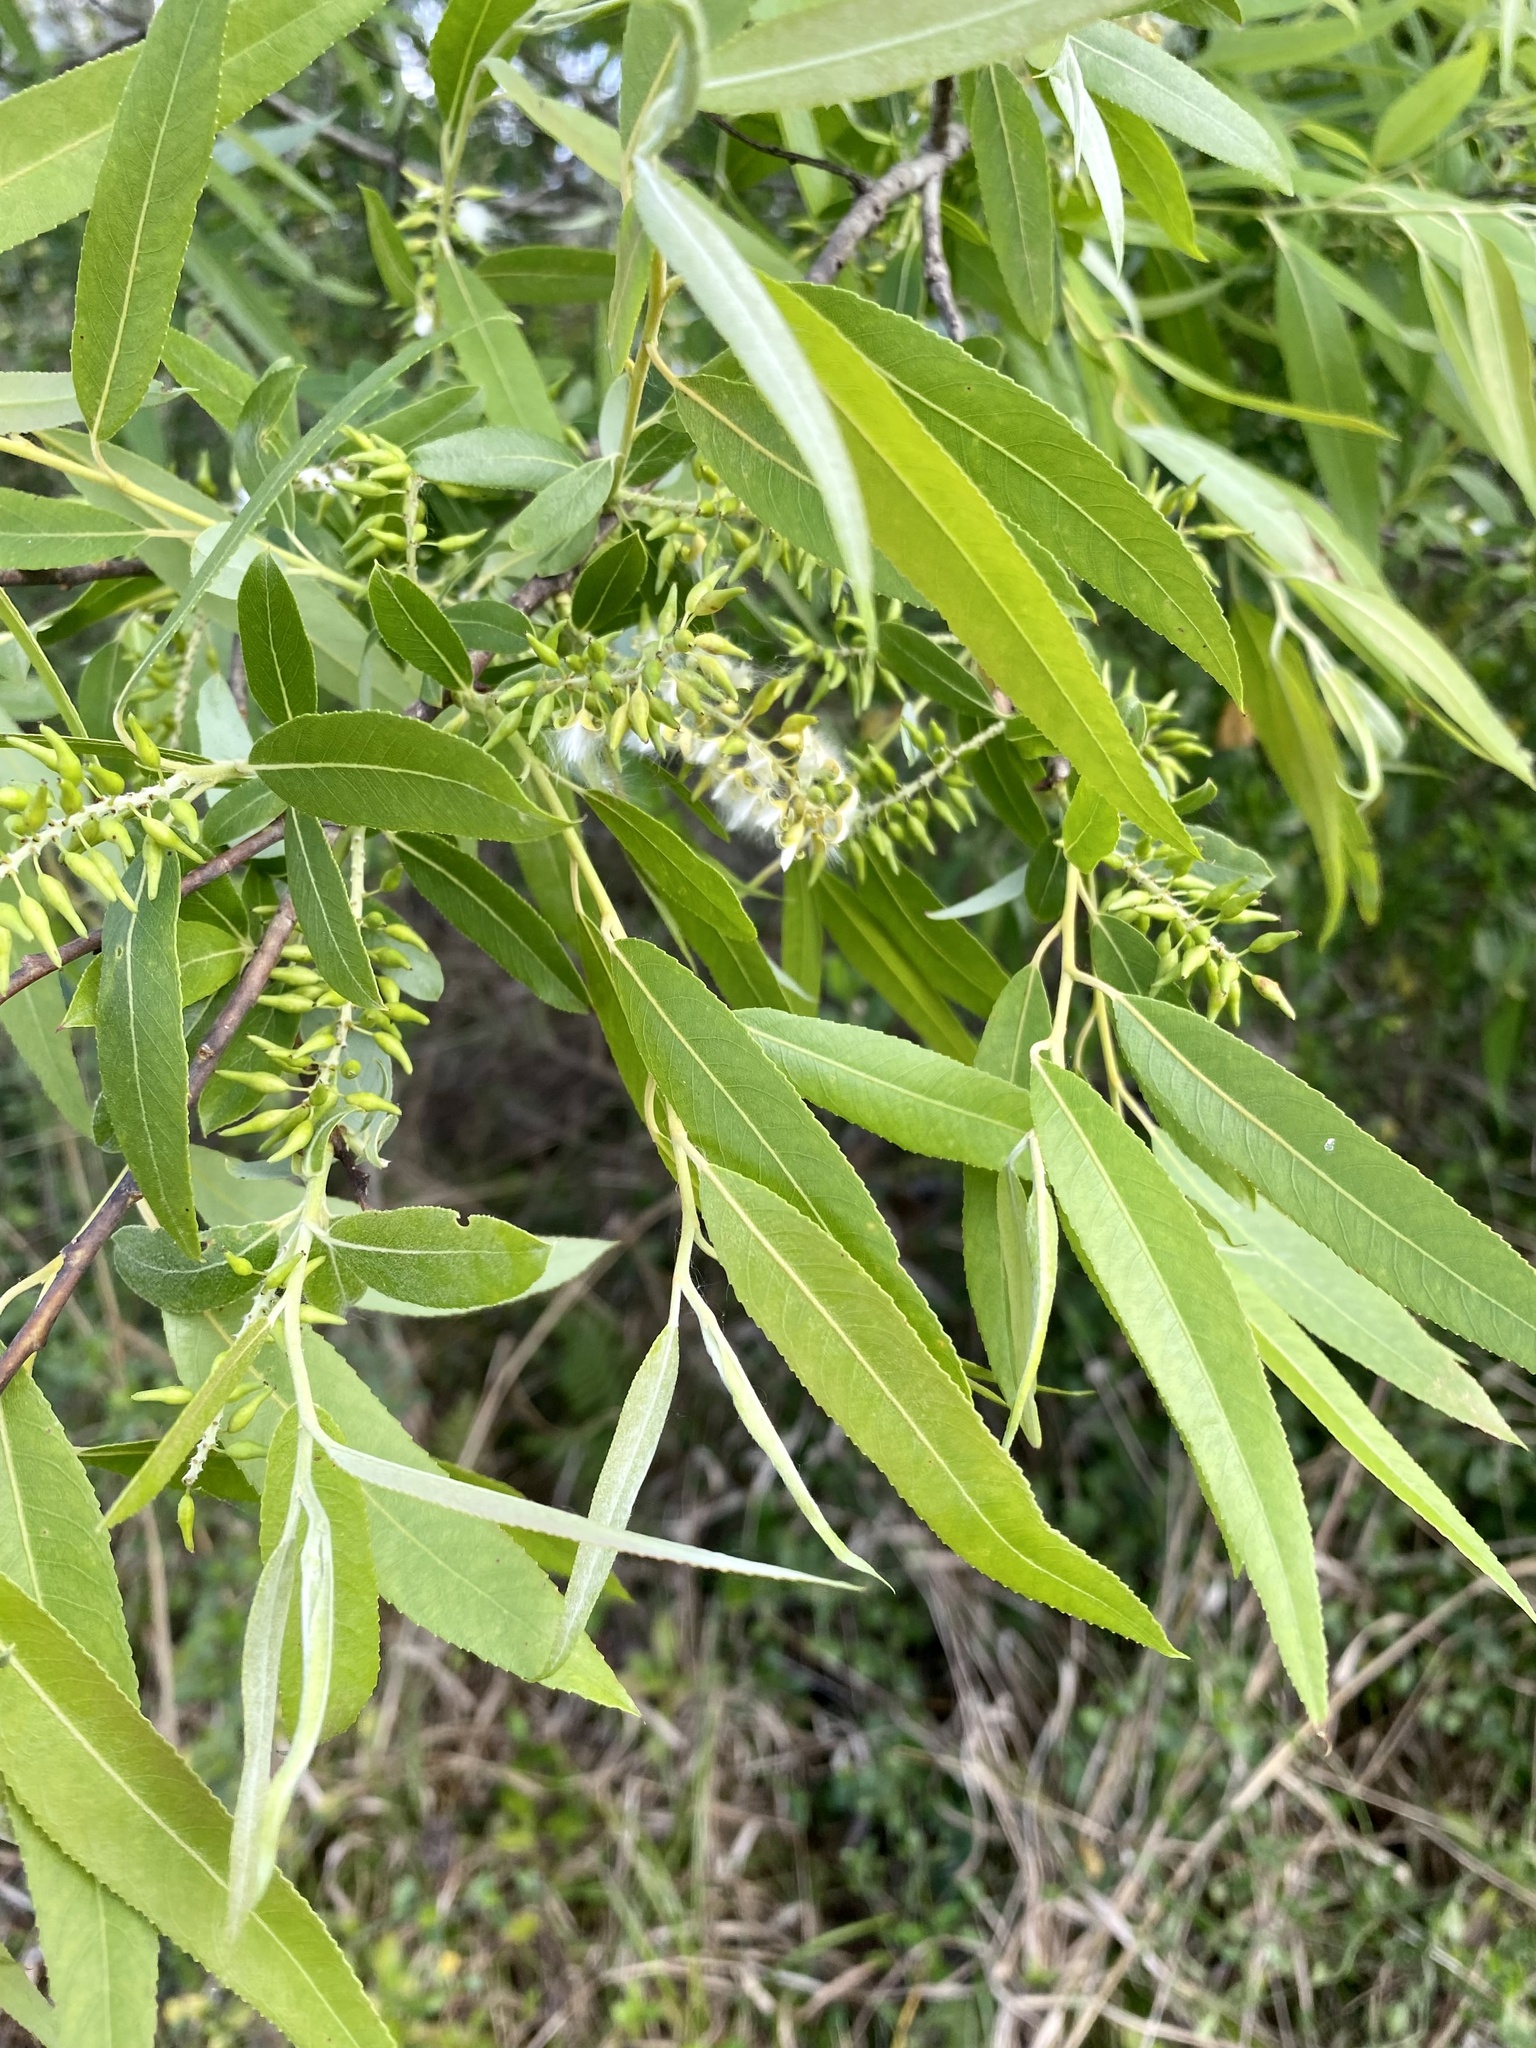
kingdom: Plantae
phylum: Tracheophyta
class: Magnoliopsida
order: Malpighiales
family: Salicaceae
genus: Salix
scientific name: Salix caroliniana
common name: Carolina willow
